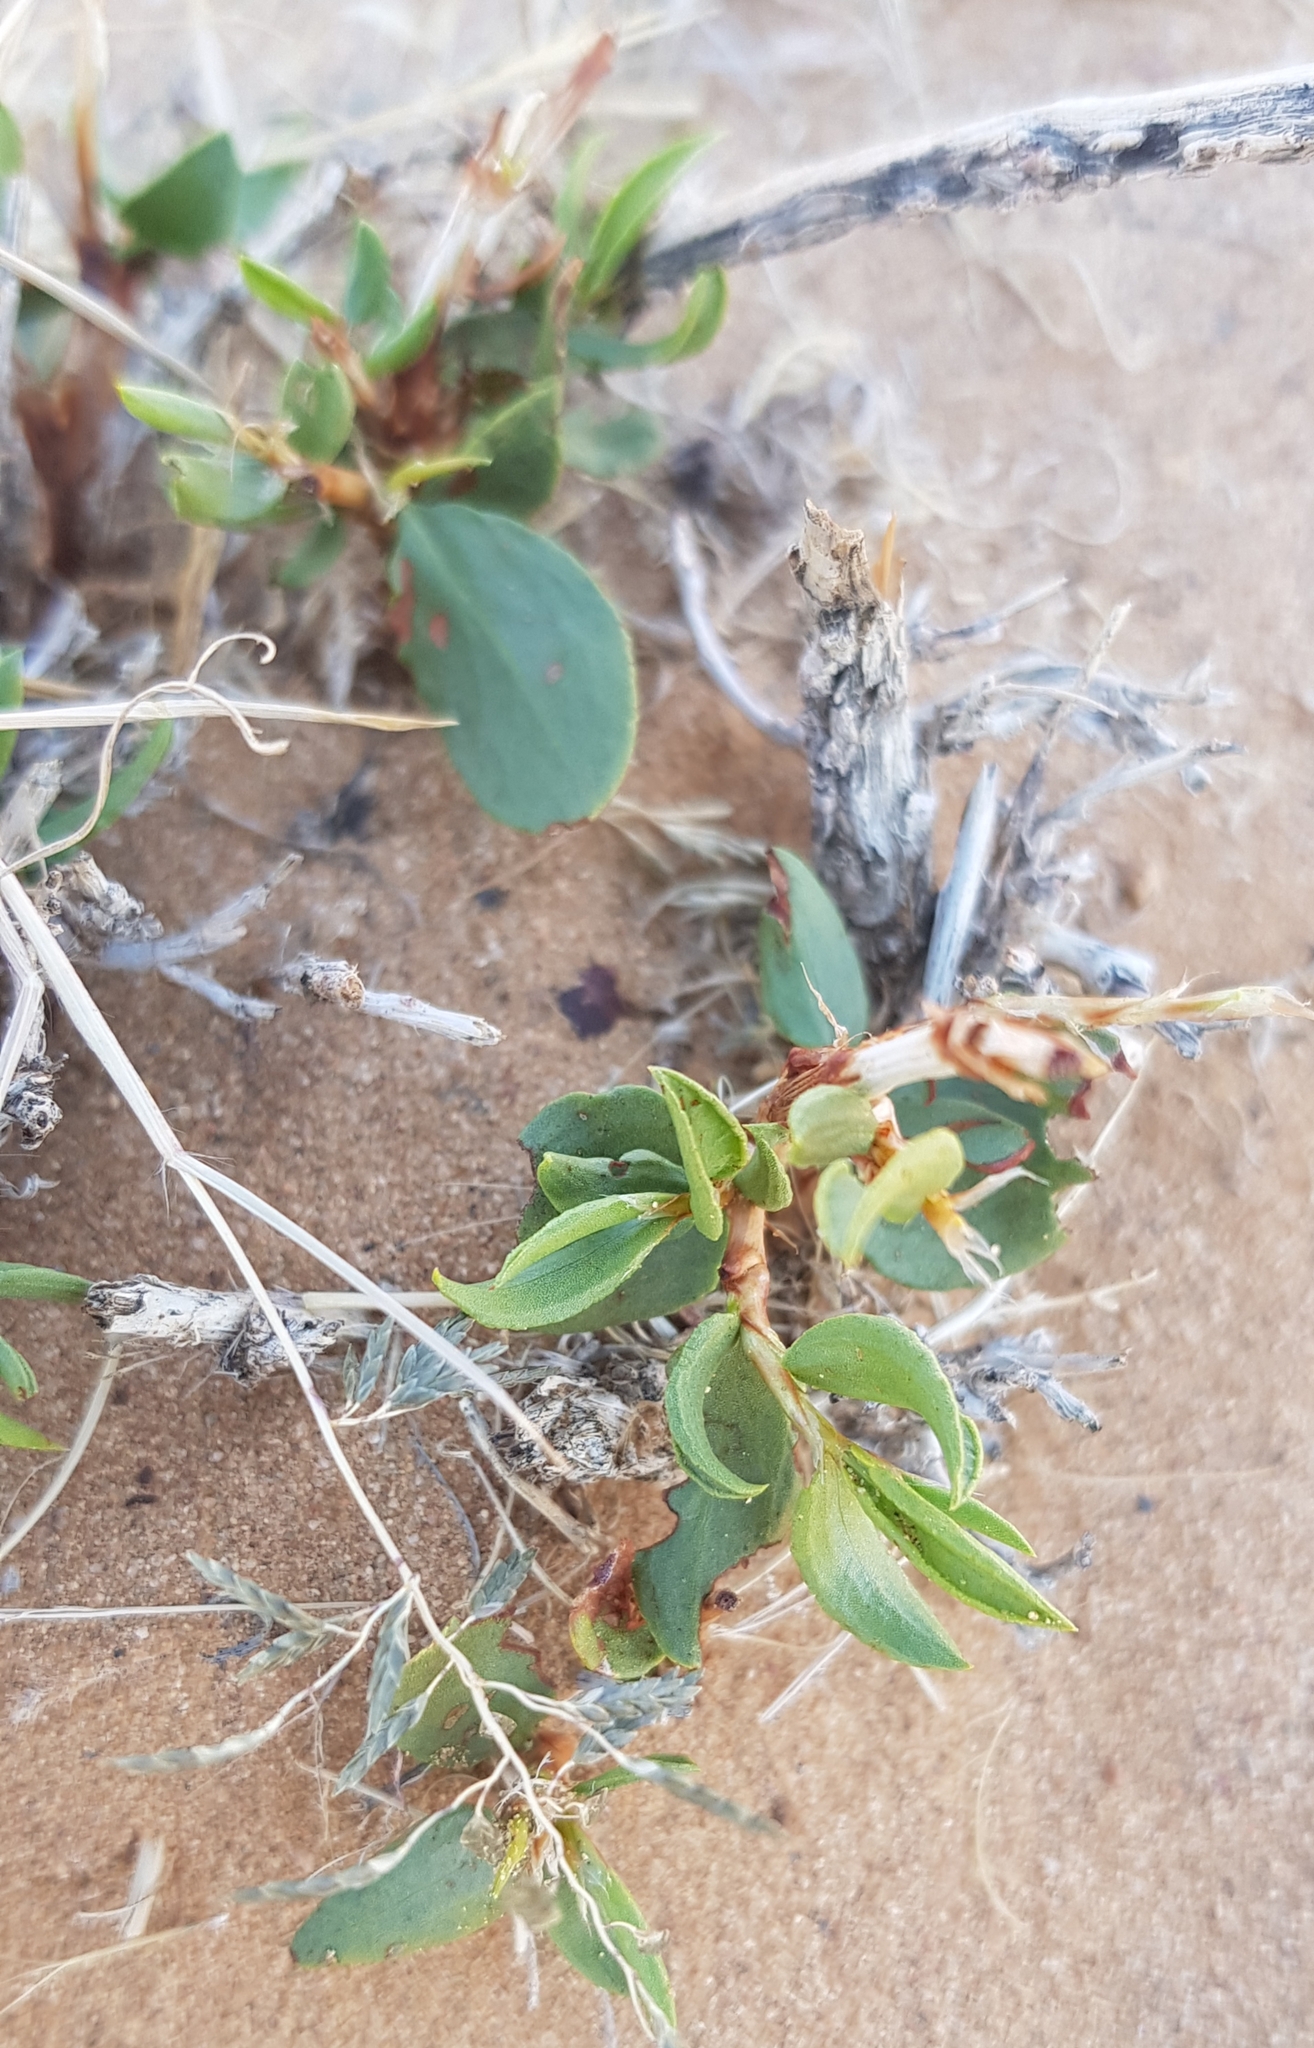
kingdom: Plantae
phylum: Tracheophyta
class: Magnoliopsida
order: Caryophyllales
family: Polygonaceae
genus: Atraphaxis
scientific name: Atraphaxis frutescens
